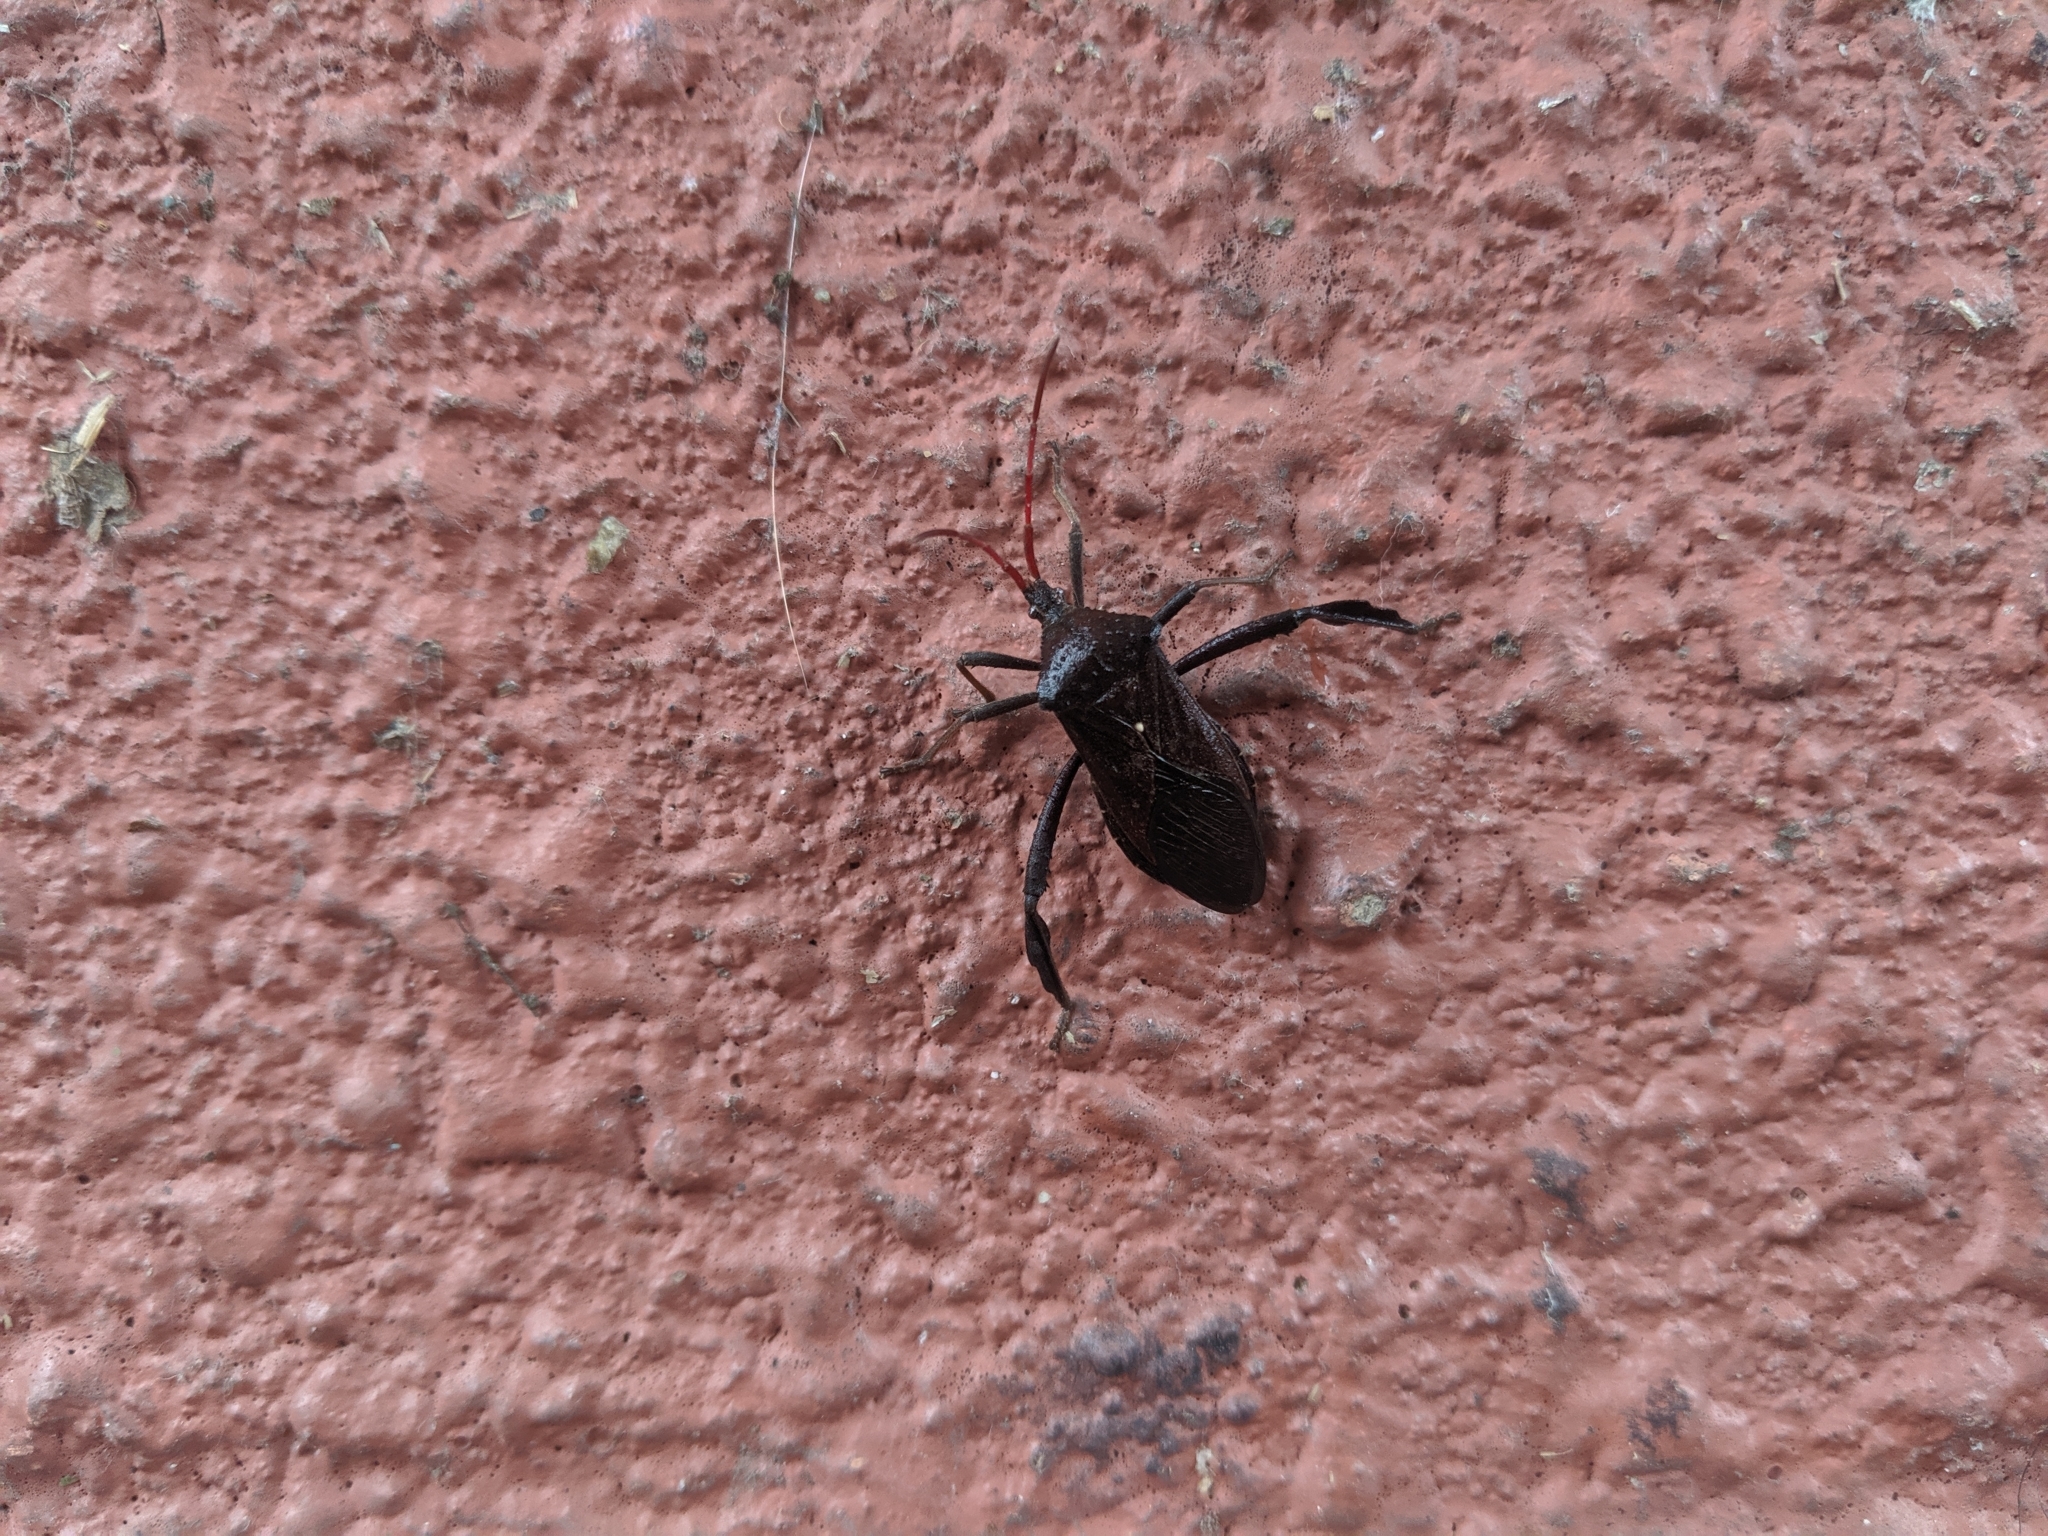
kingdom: Animalia
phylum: Arthropoda
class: Insecta
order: Hemiptera
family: Coreidae
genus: Acanthocephala
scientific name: Acanthocephala femorata
